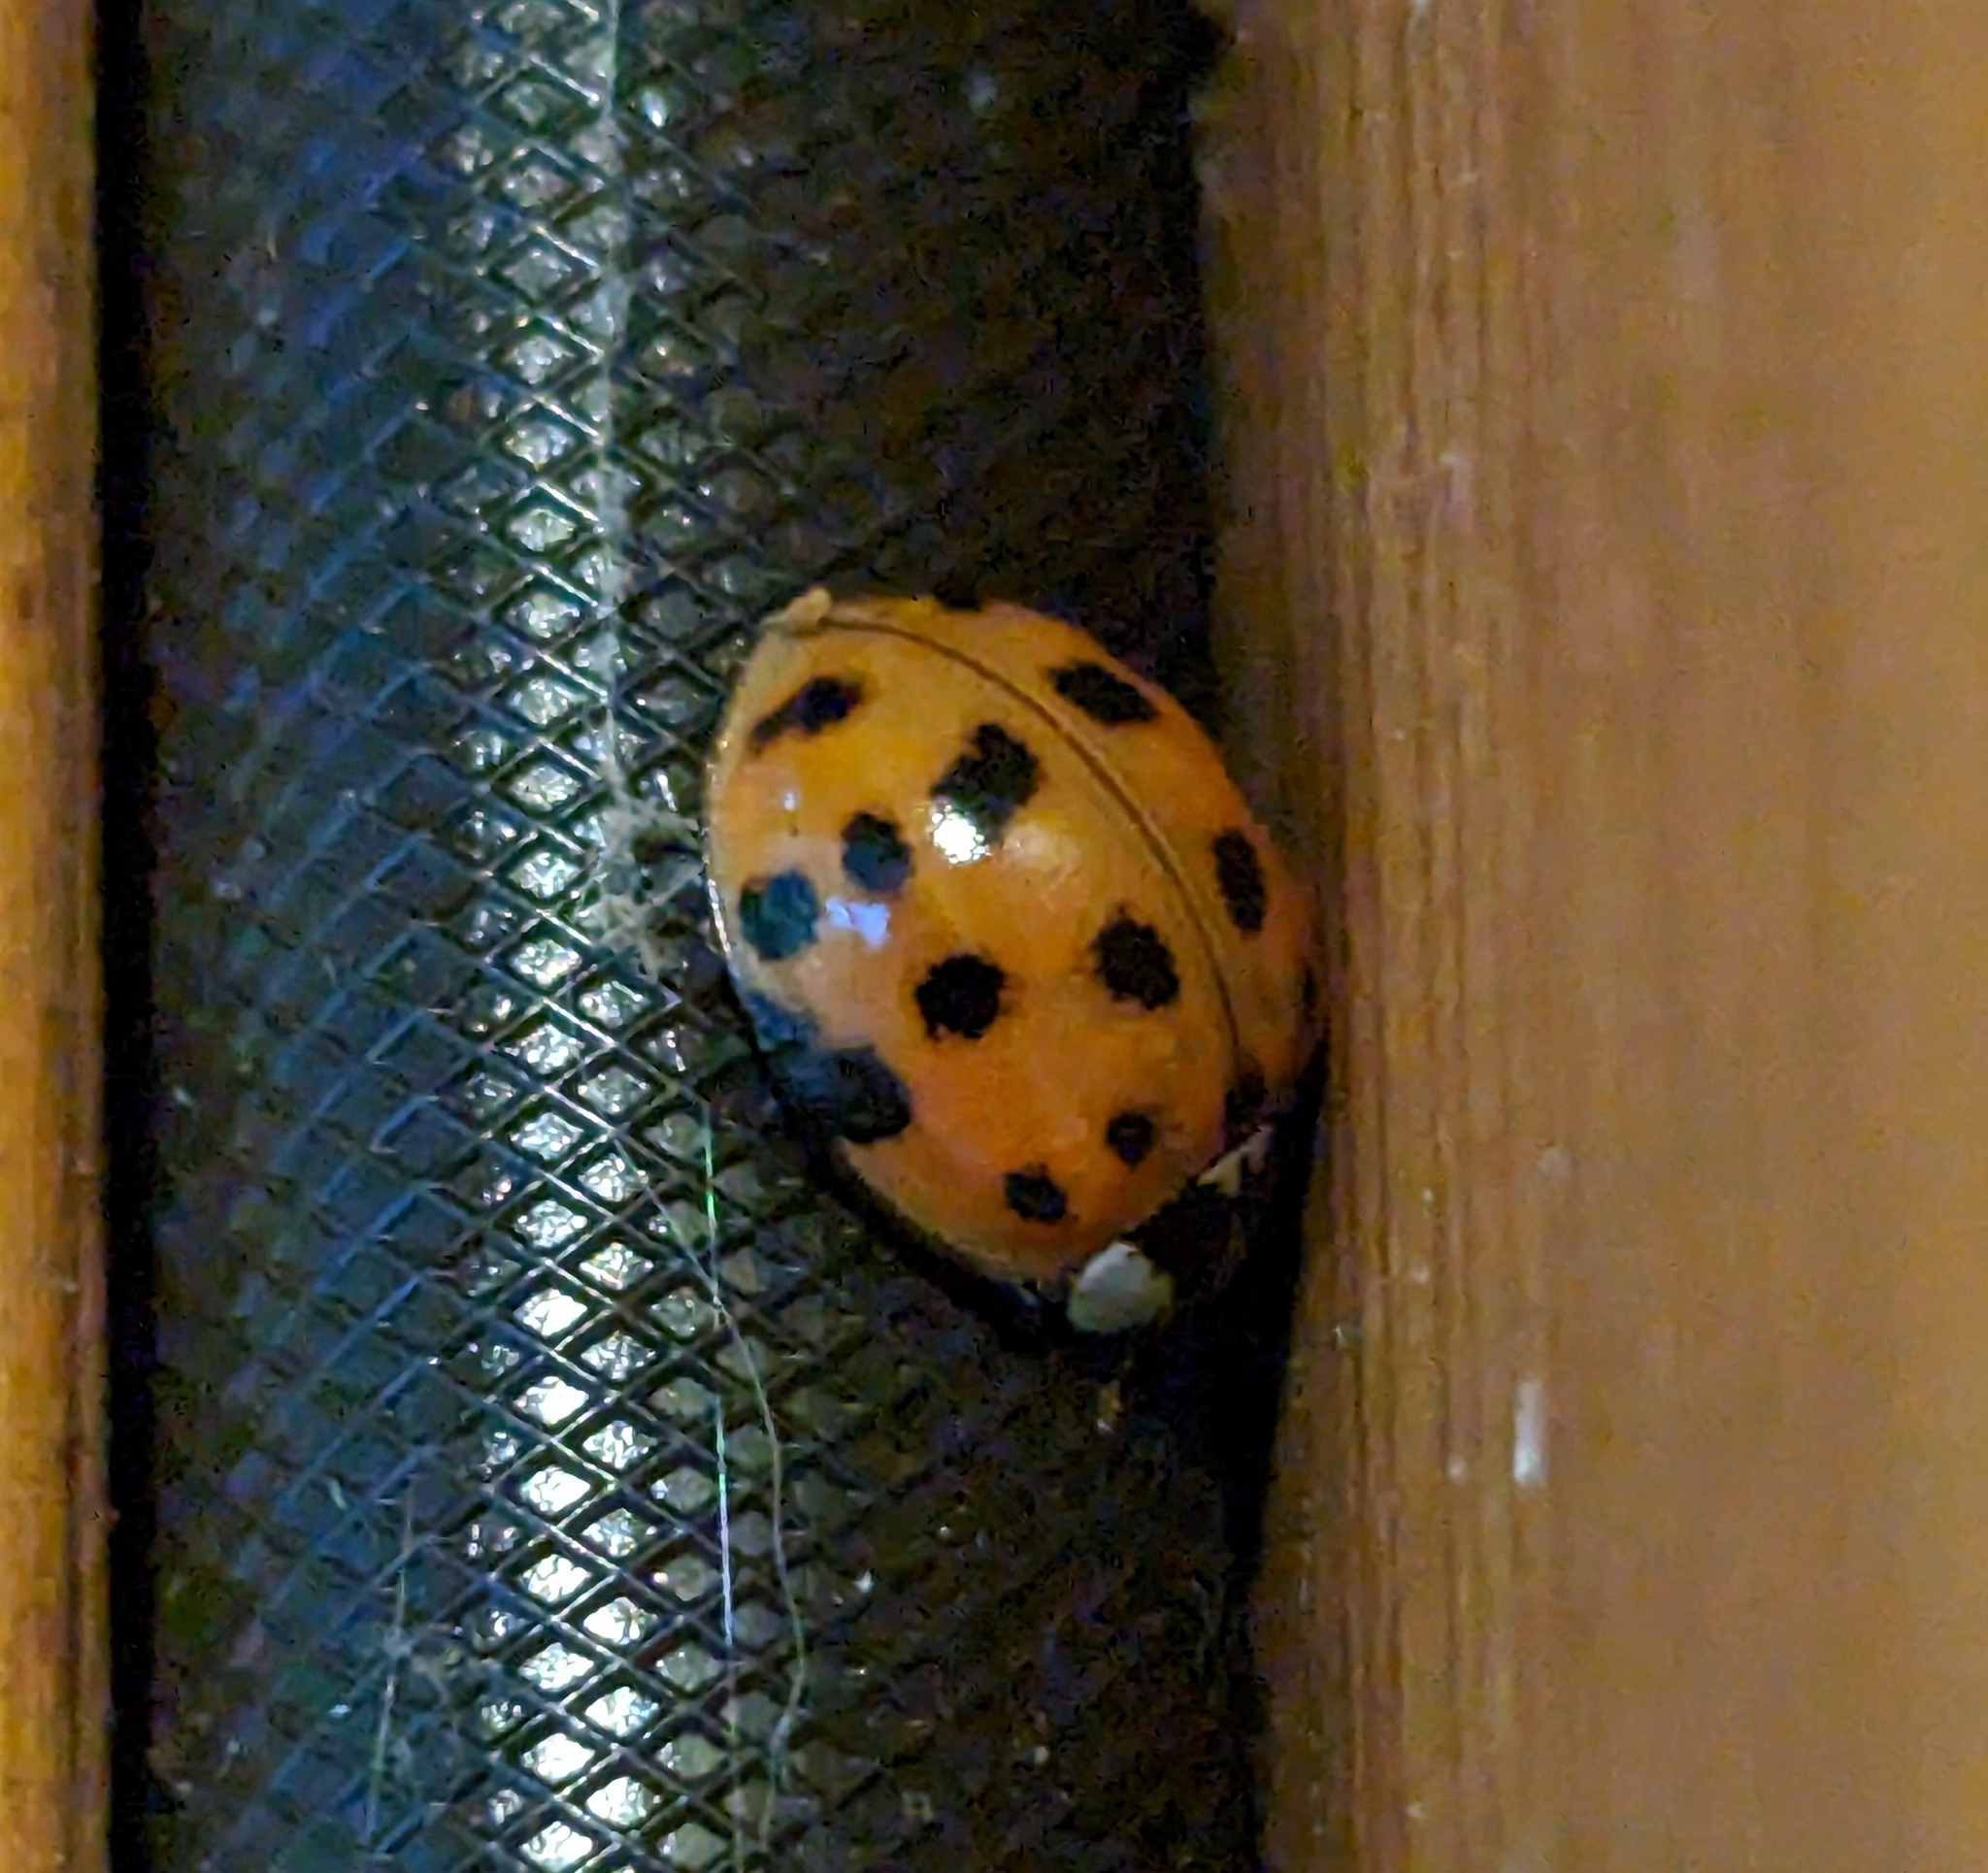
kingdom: Animalia
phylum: Arthropoda
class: Insecta
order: Coleoptera
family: Coccinellidae
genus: Harmonia
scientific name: Harmonia axyridis
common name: Harlequin ladybird
